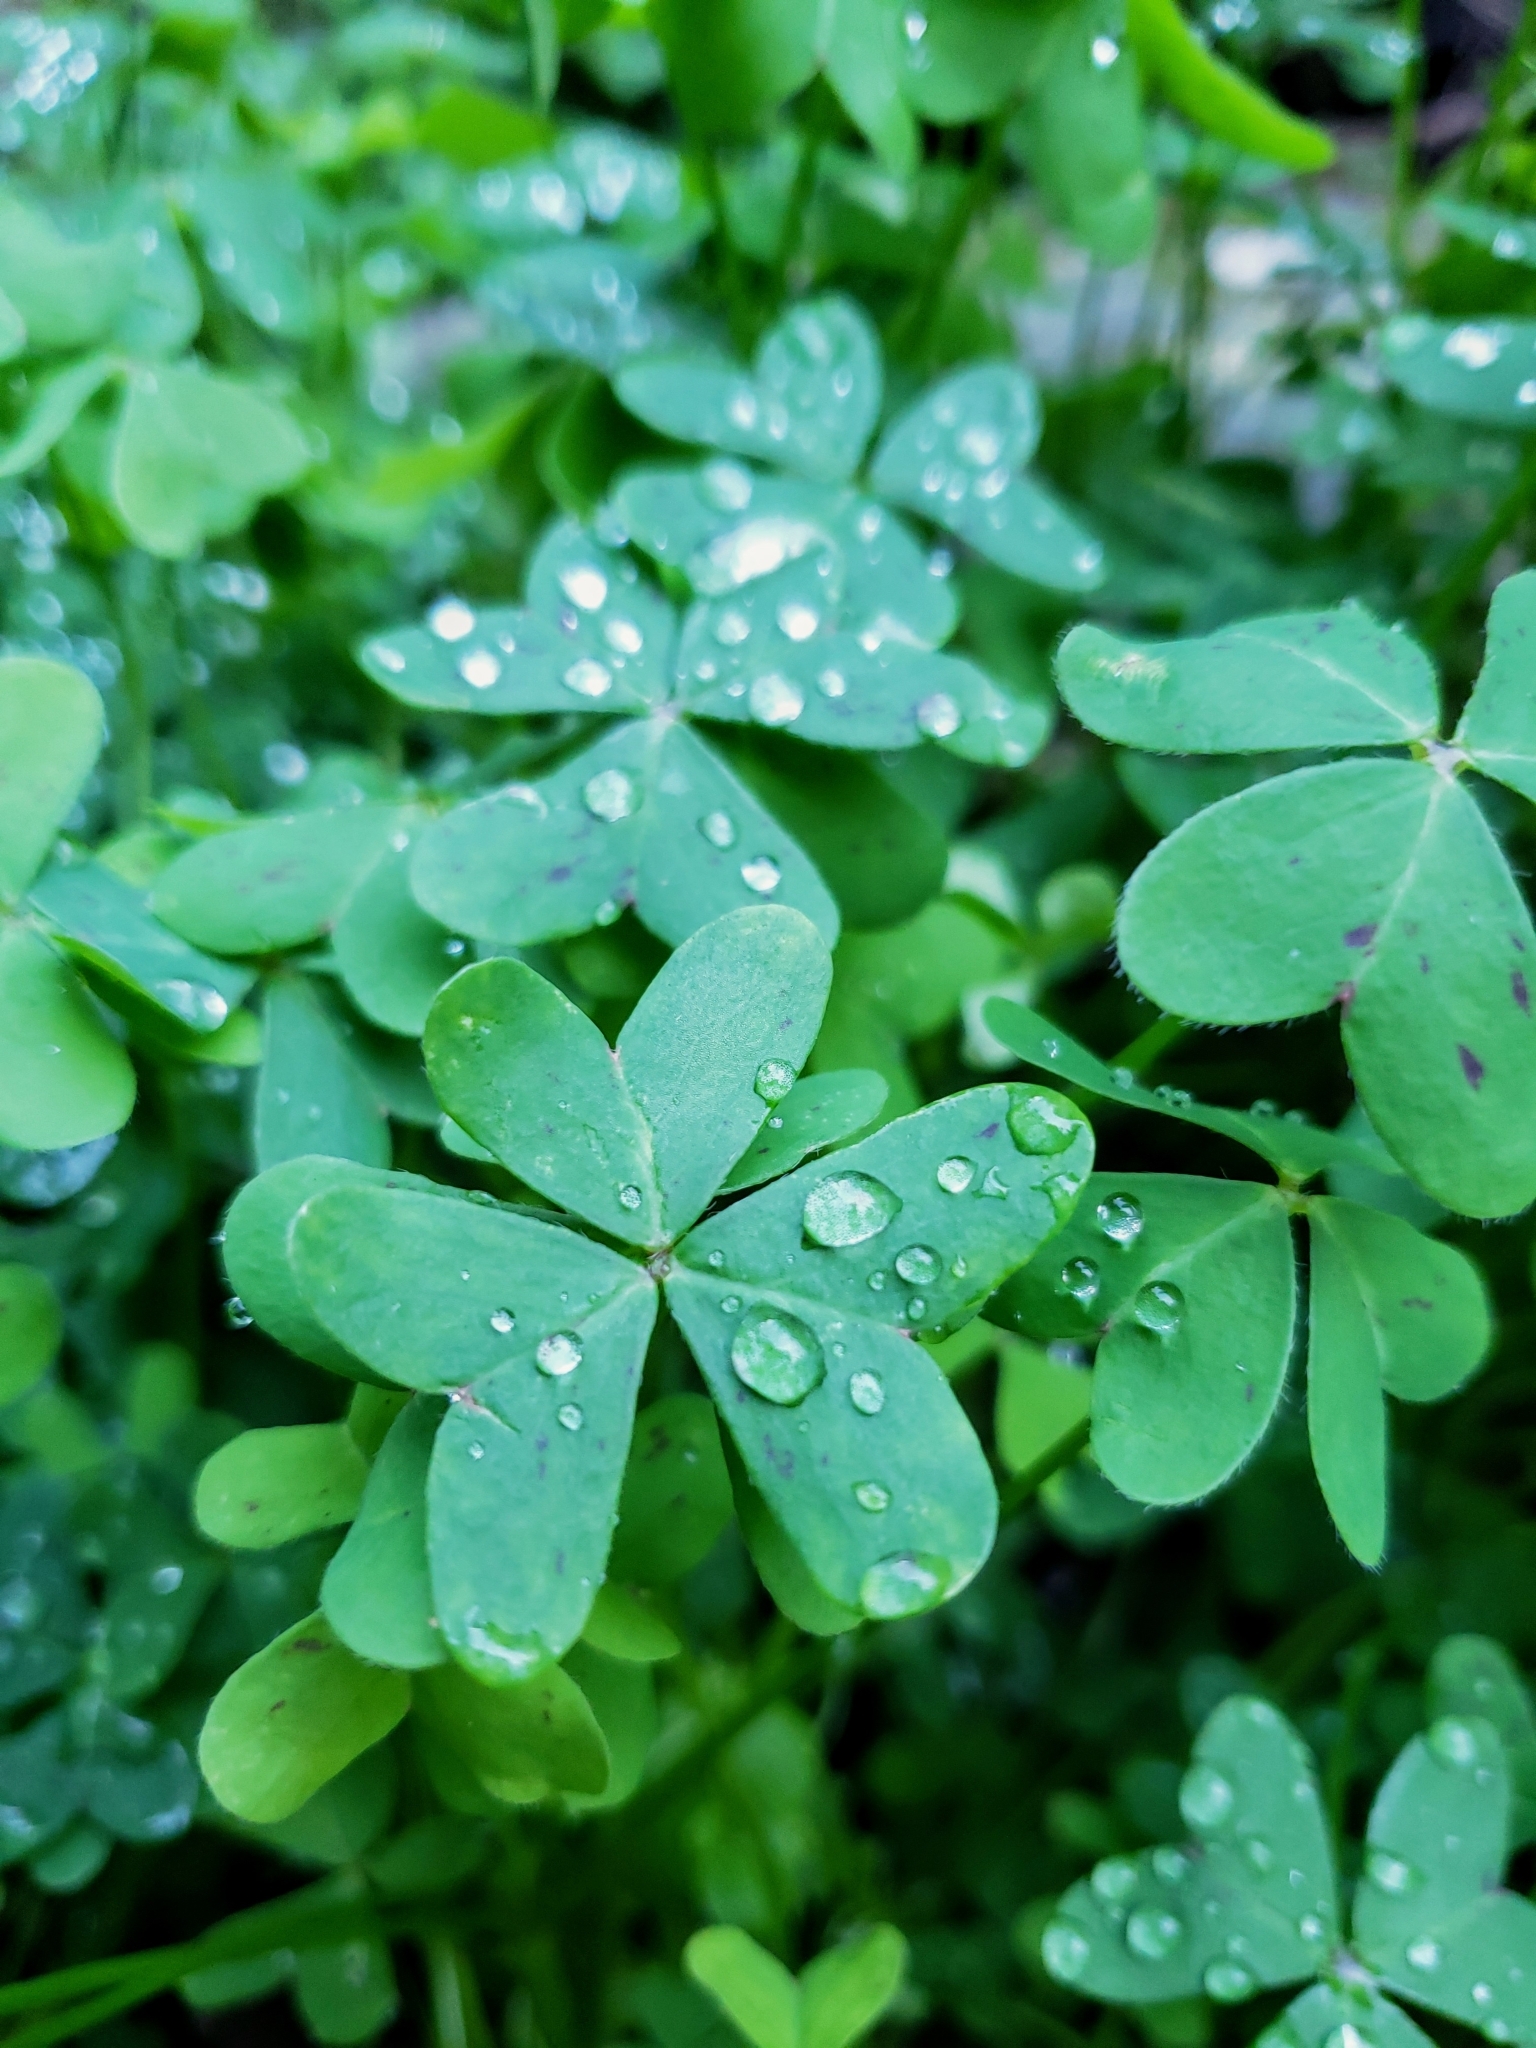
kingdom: Plantae
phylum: Tracheophyta
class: Magnoliopsida
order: Oxalidales
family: Oxalidaceae
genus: Oxalis
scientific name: Oxalis pes-caprae
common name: Bermuda-buttercup
